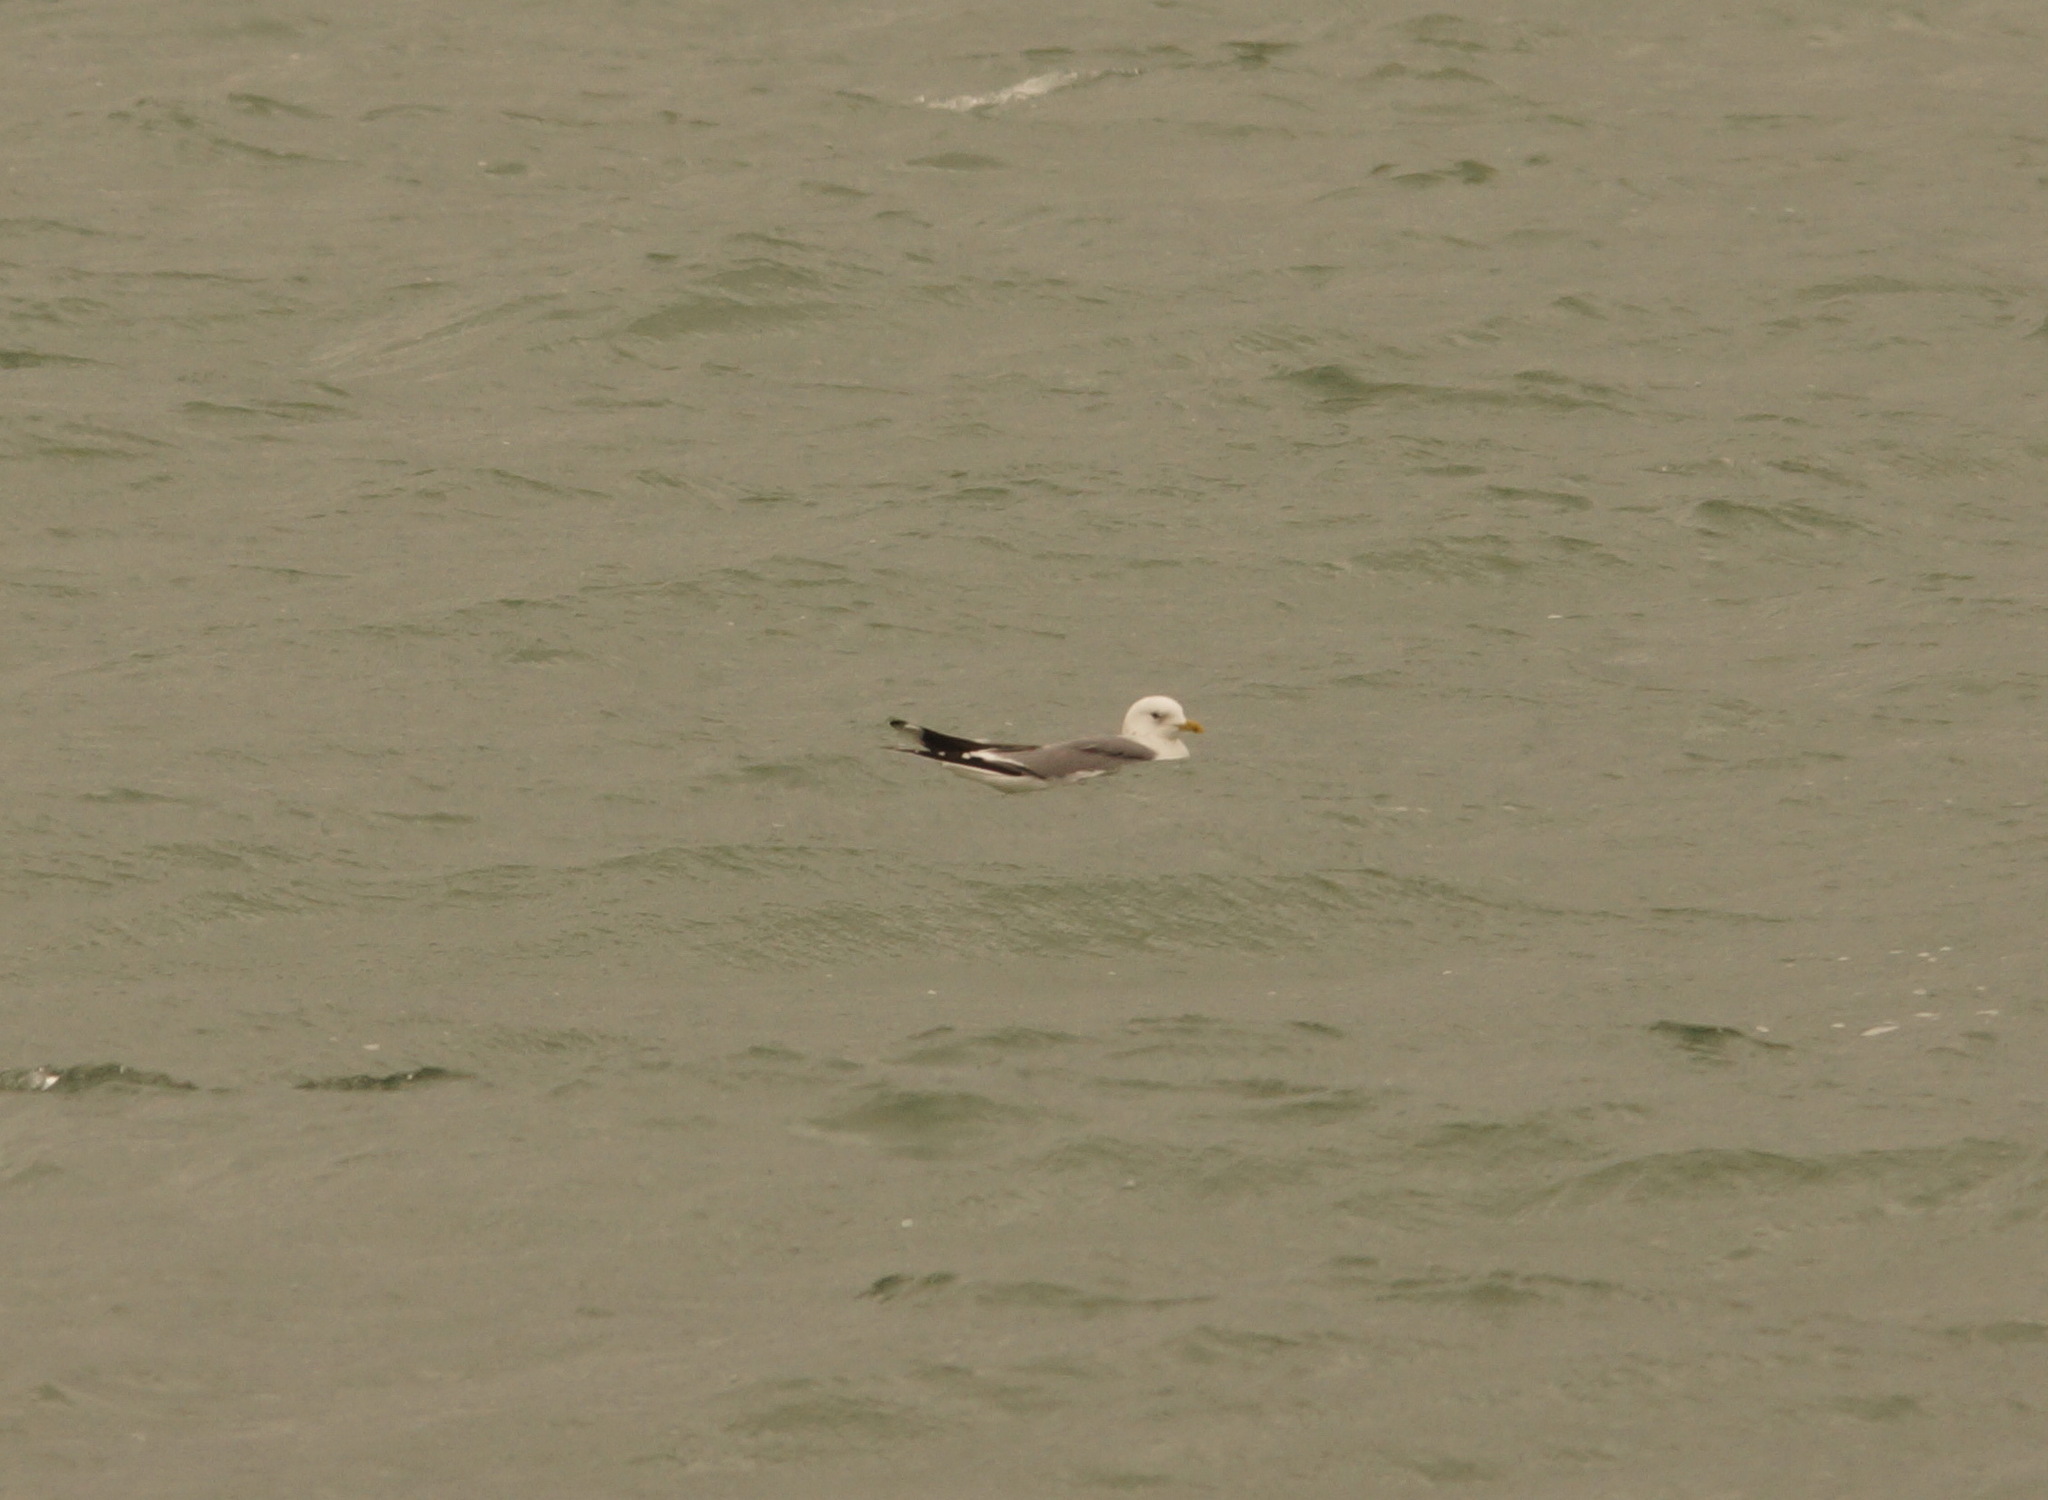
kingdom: Animalia
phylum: Chordata
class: Aves
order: Charadriiformes
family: Laridae
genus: Larus
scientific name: Larus canus
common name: Mew gull
